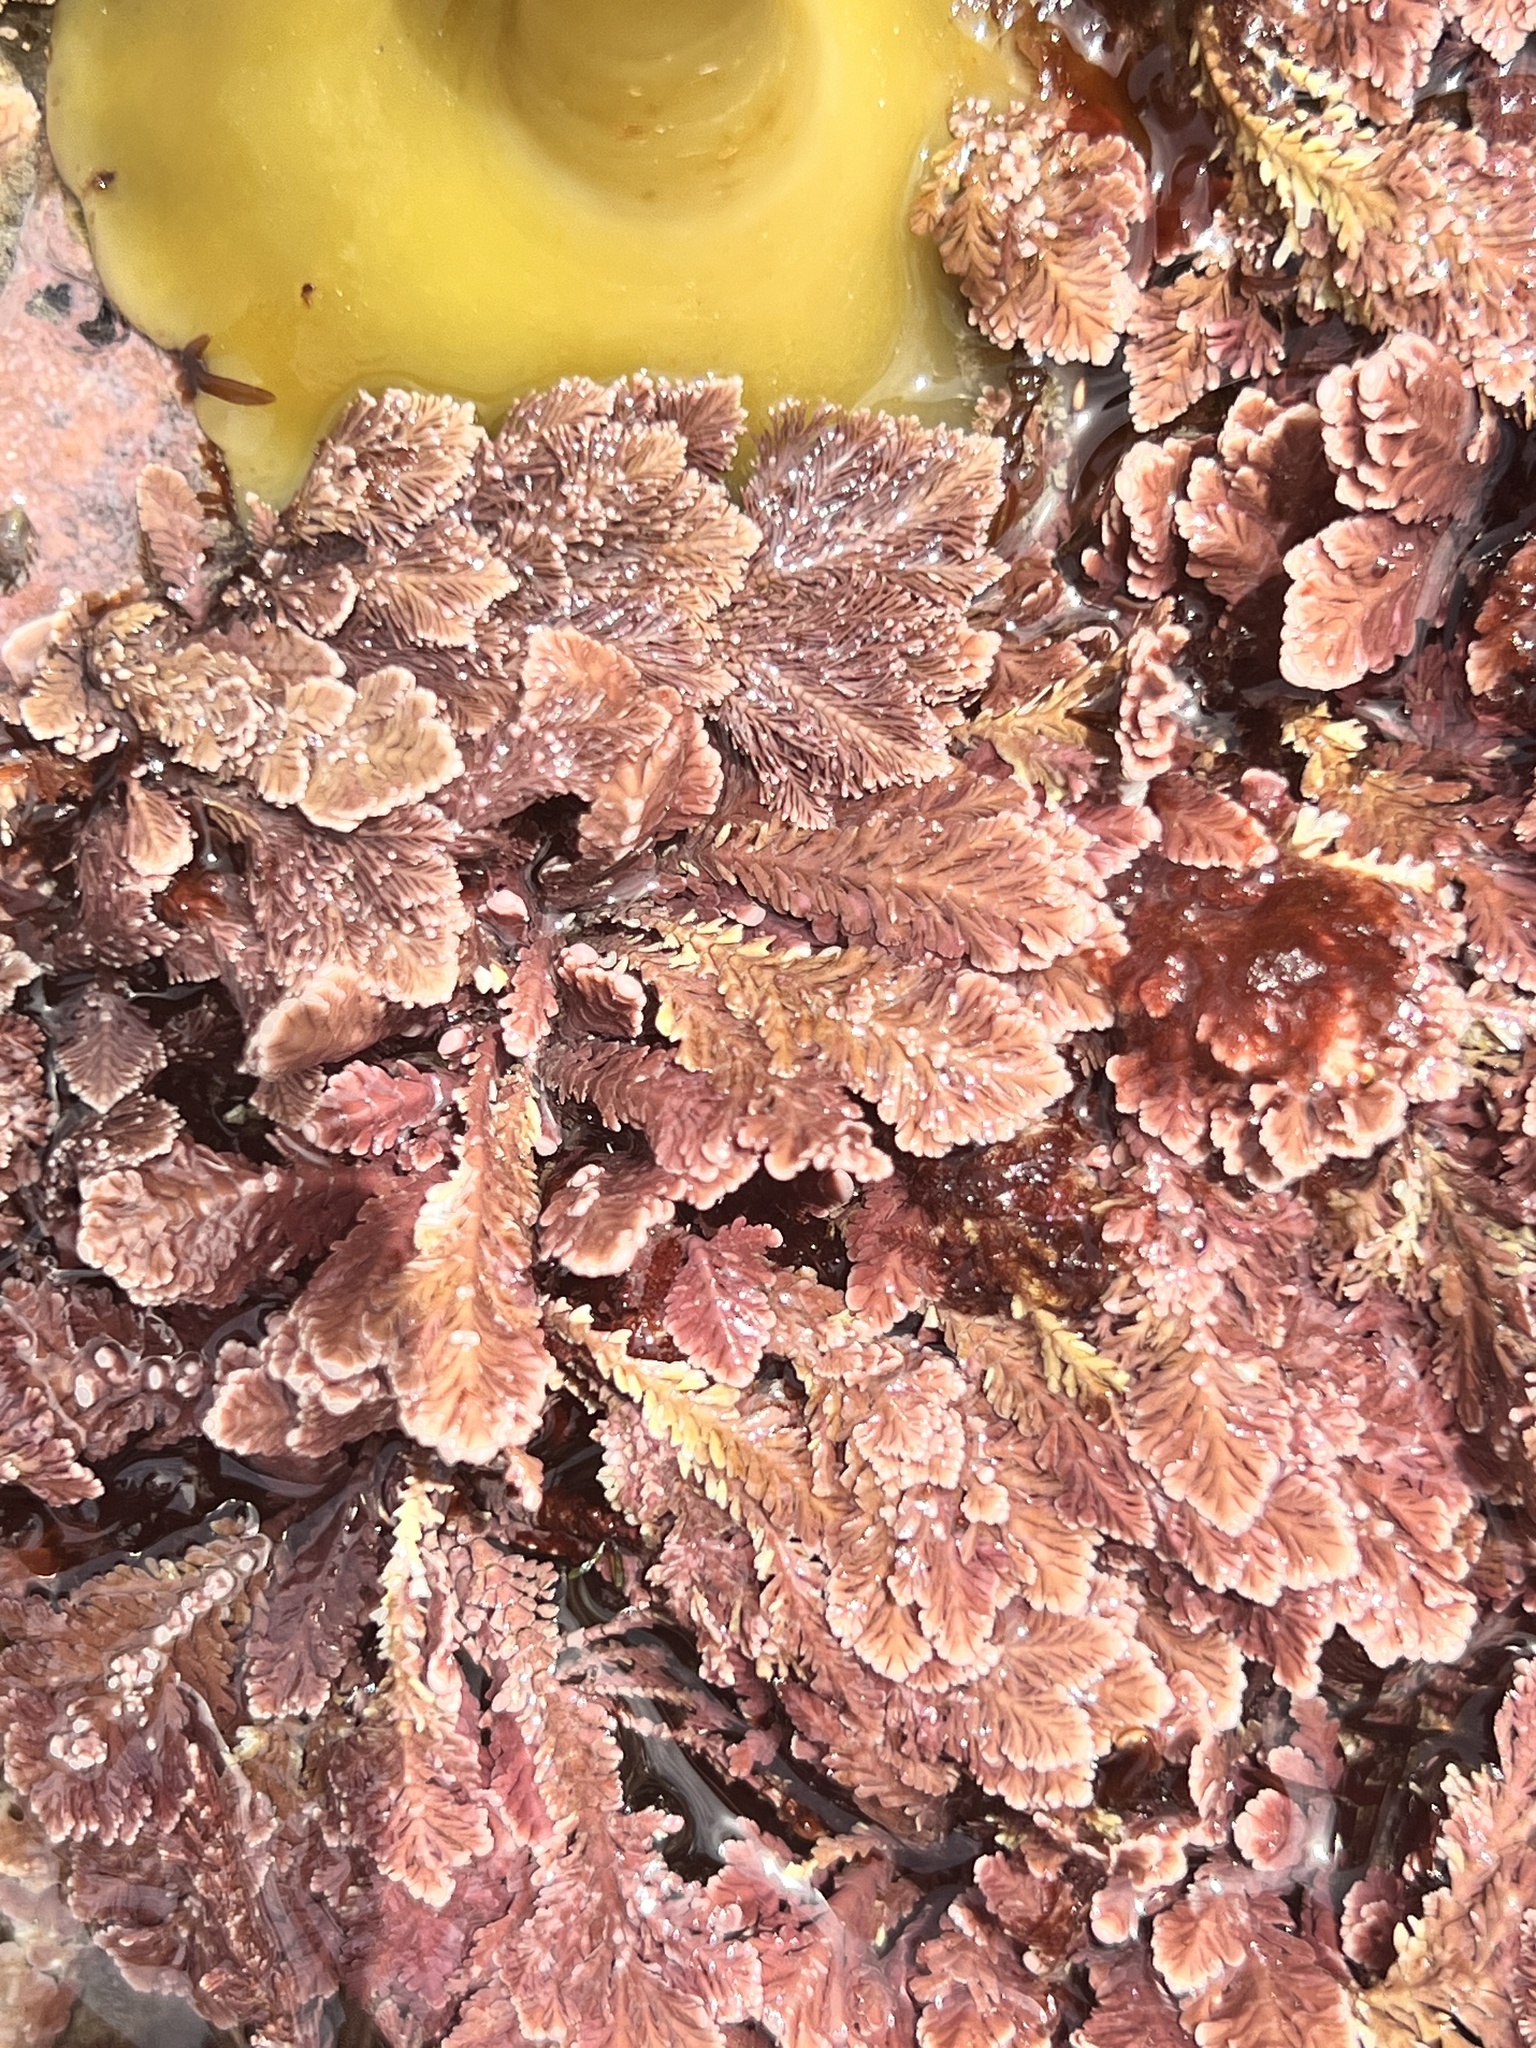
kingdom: Plantae
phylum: Rhodophyta
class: Florideophyceae
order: Corallinales
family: Corallinaceae
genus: Arthrocardia
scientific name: Arthrocardia corymbosa
